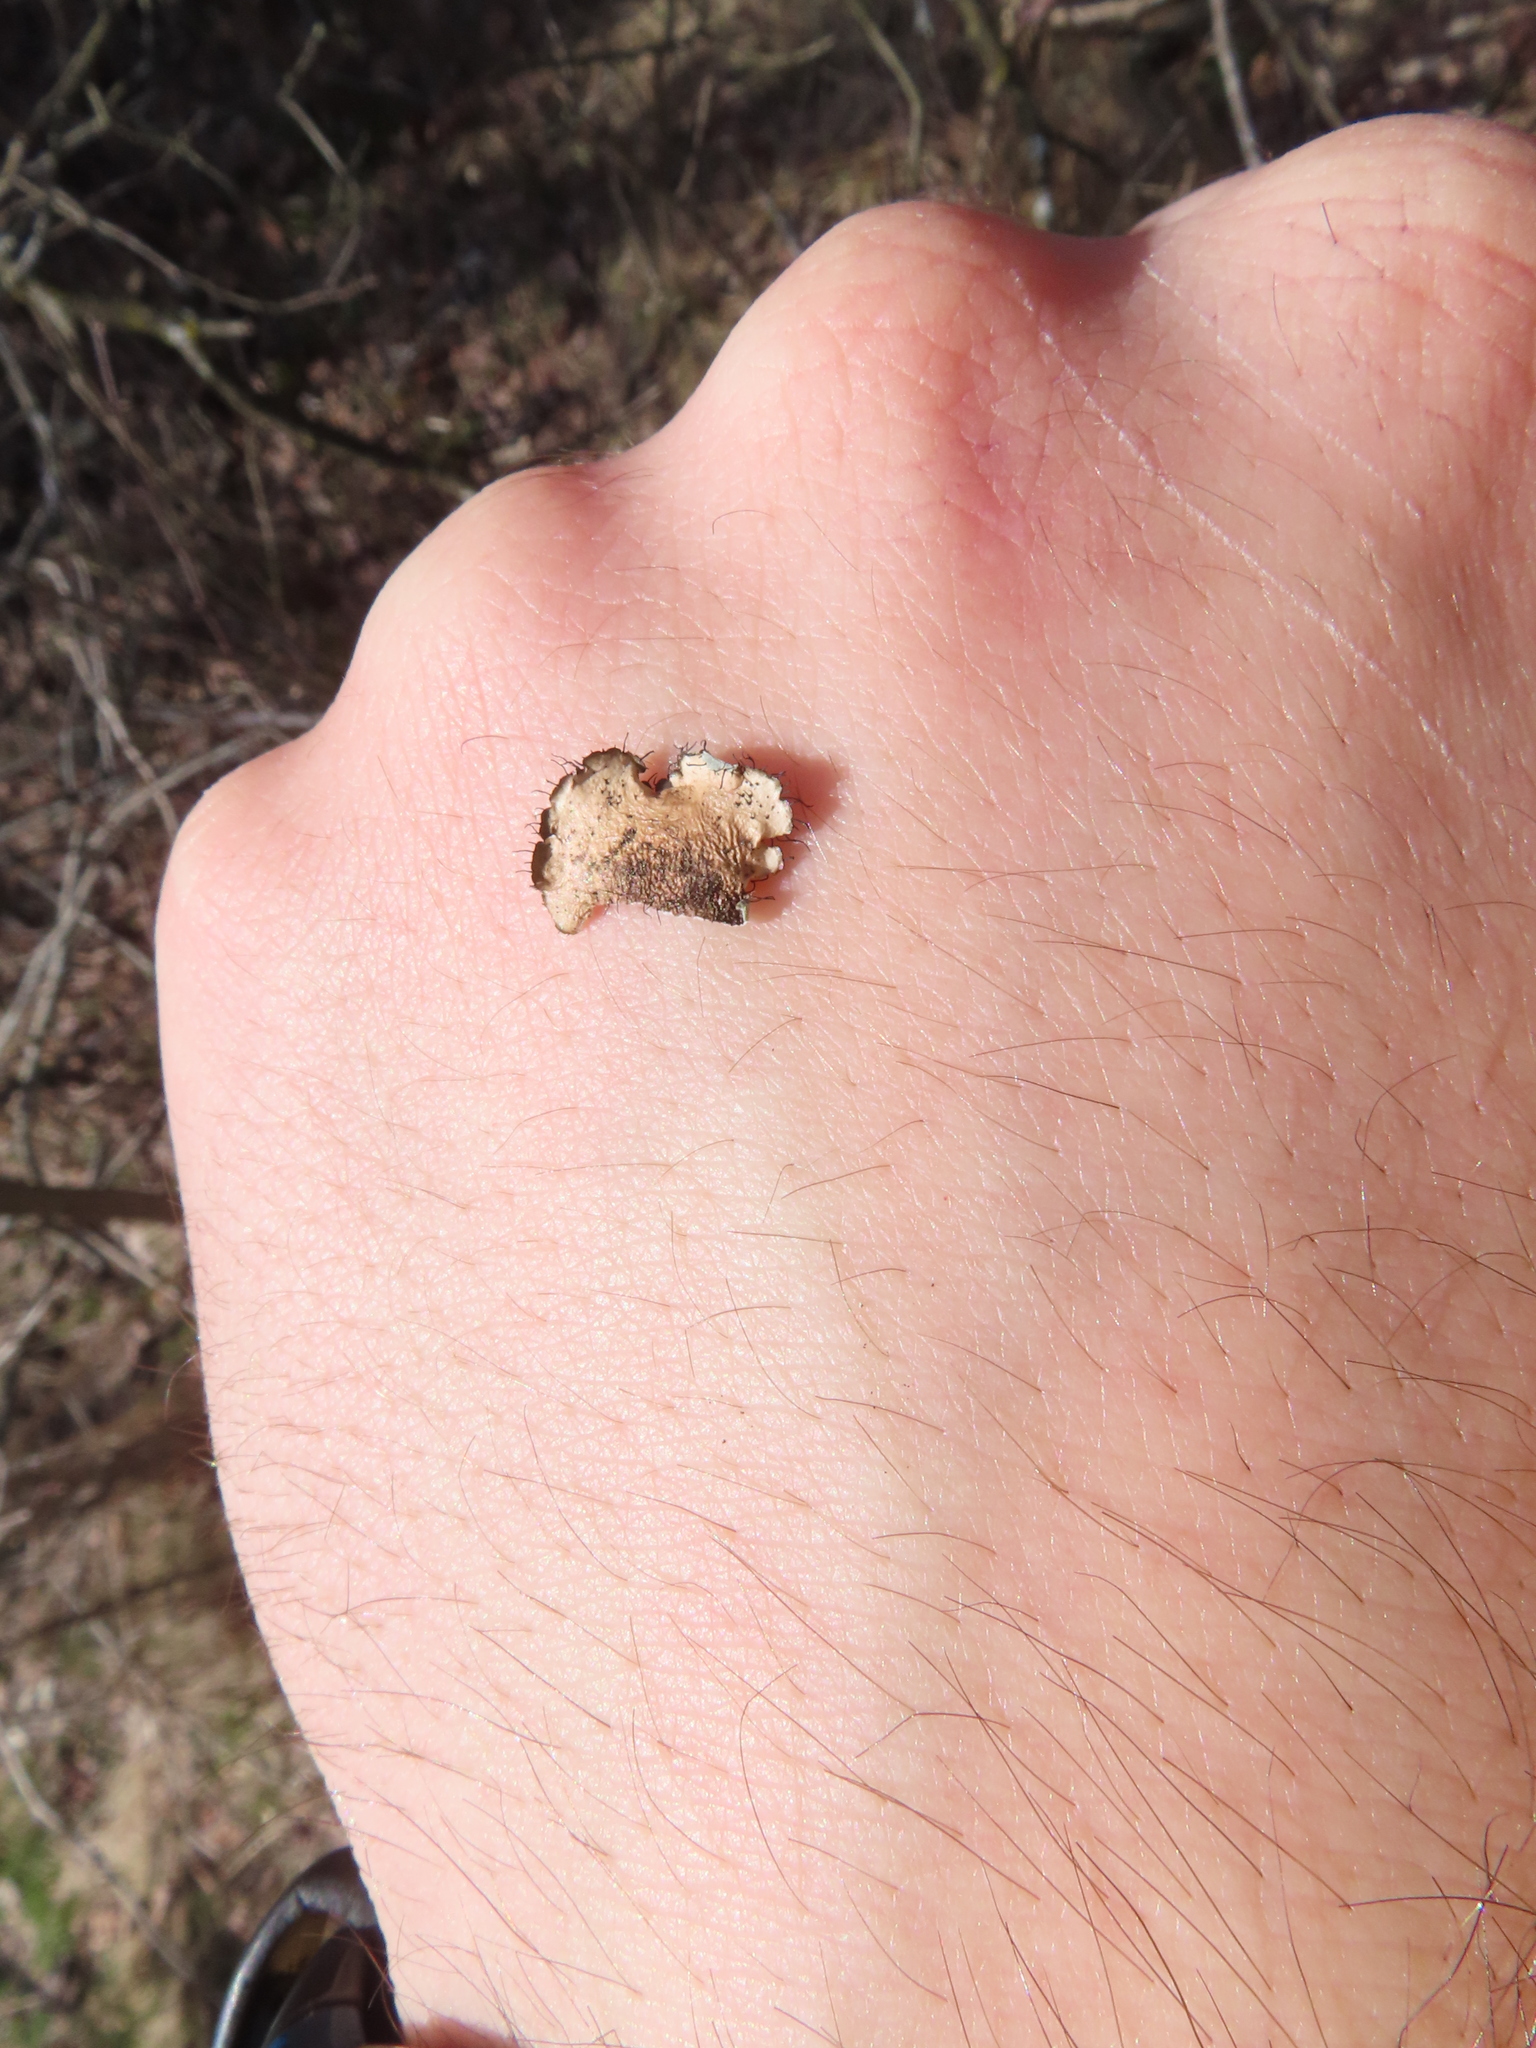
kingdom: Fungi
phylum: Ascomycota
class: Lecanoromycetes
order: Lecanorales
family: Parmeliaceae
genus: Parmotrema
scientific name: Parmotrema hypotropum
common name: Powdered ruffle lichen
